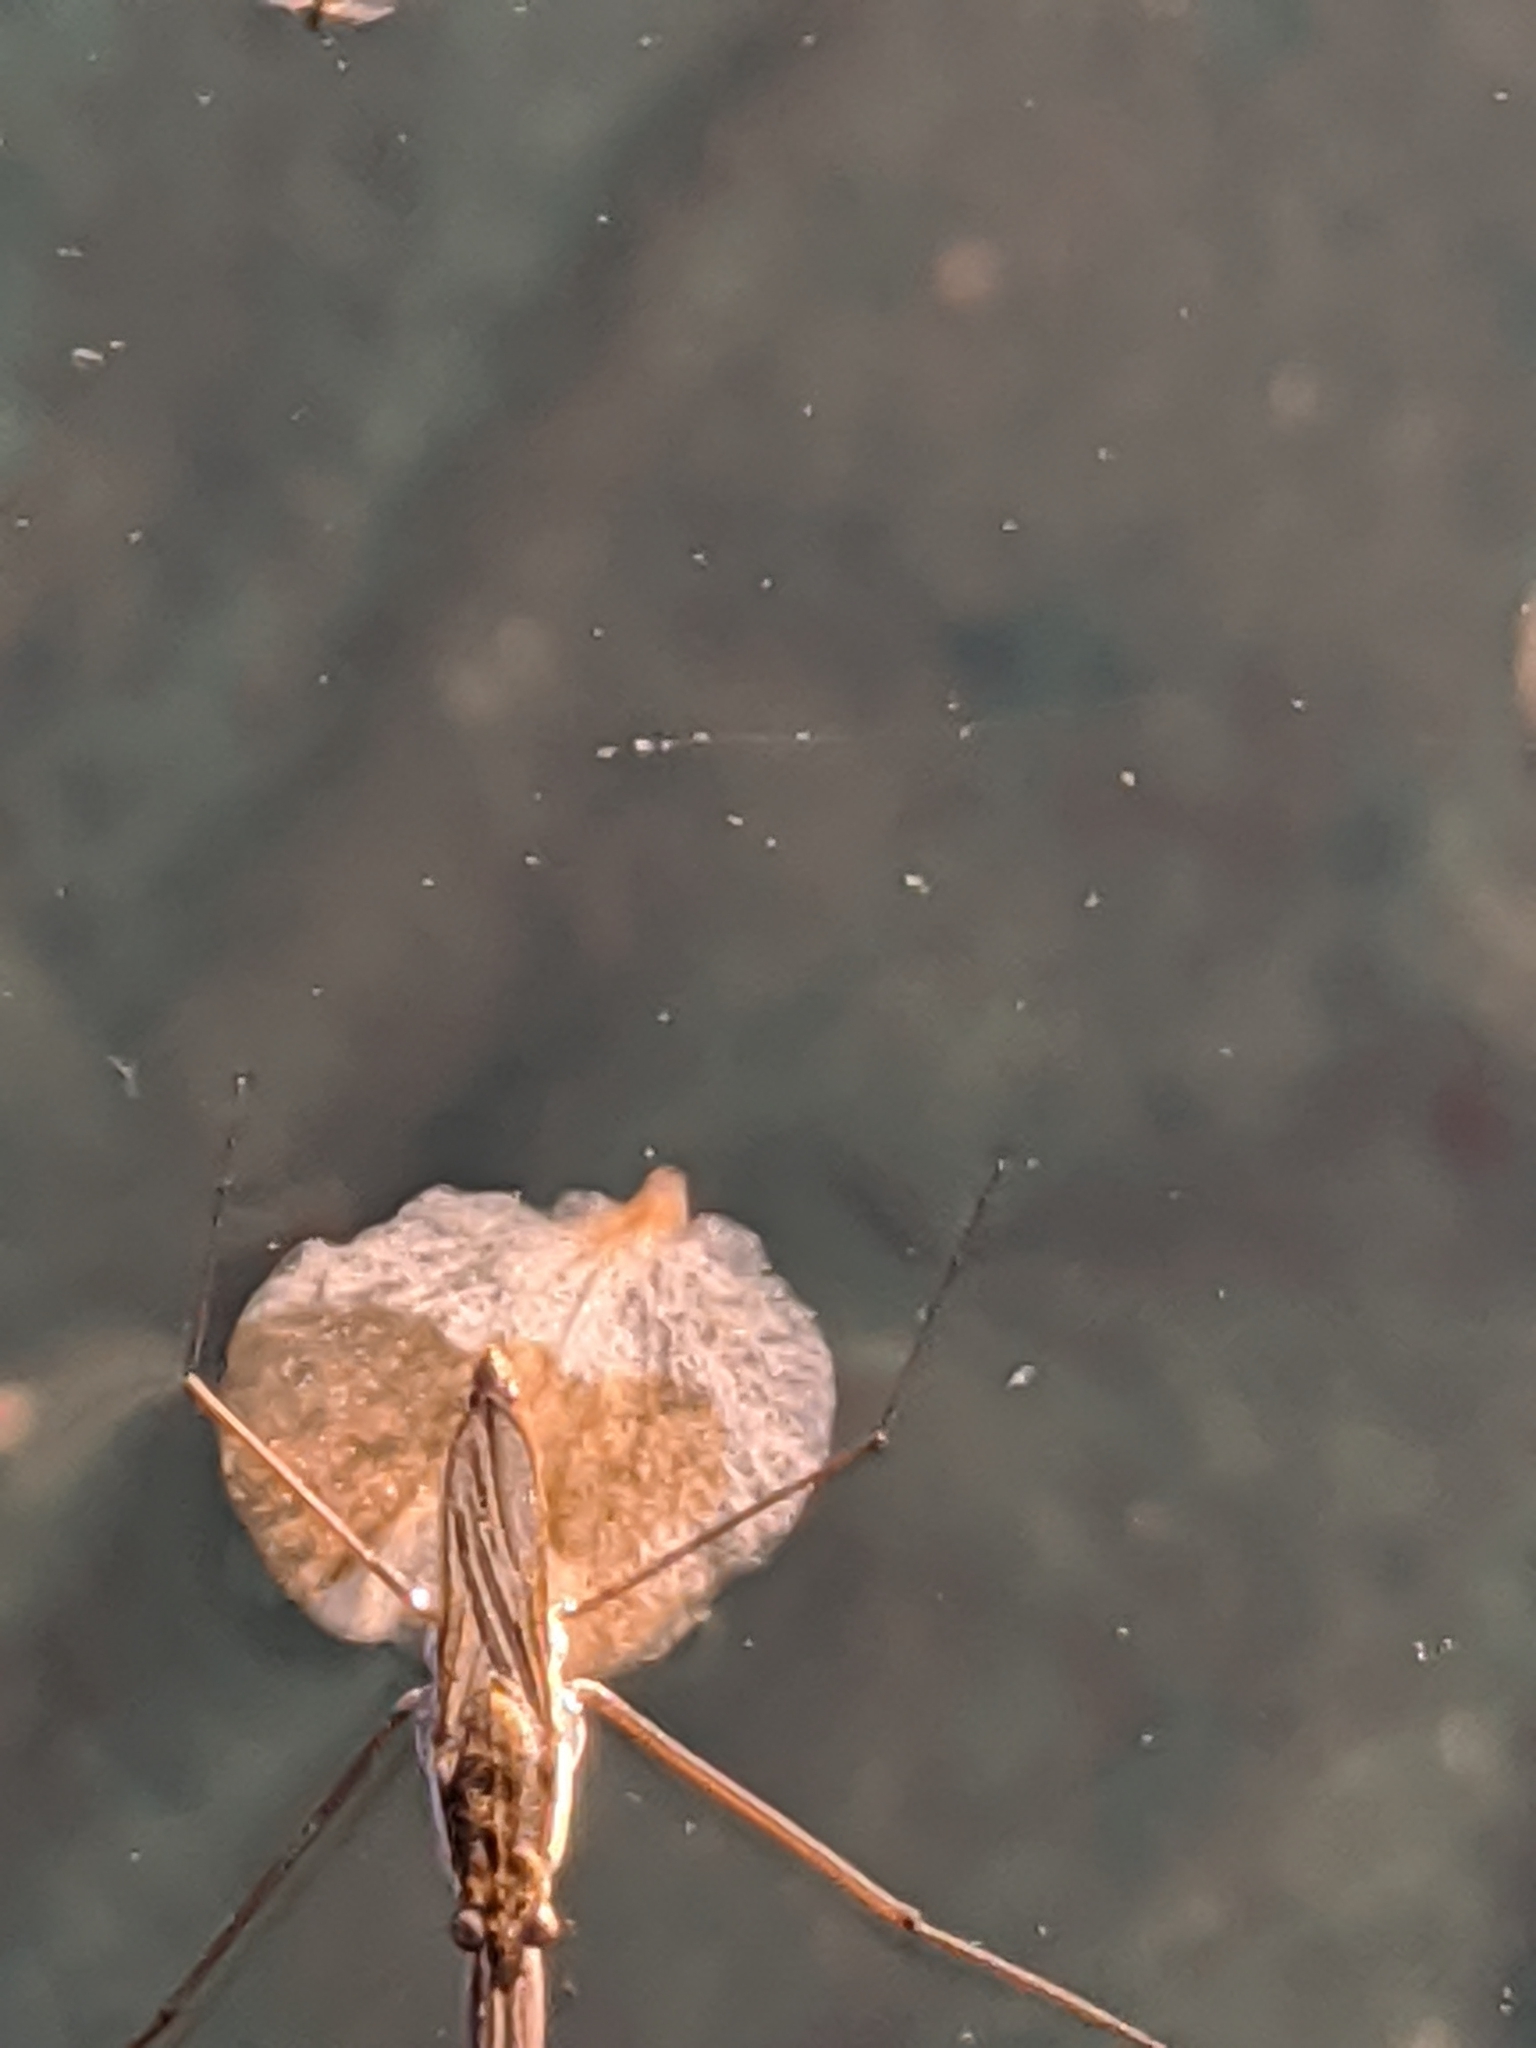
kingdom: Animalia
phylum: Arthropoda
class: Insecta
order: Hemiptera
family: Gerridae
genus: Gerris
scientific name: Gerris
